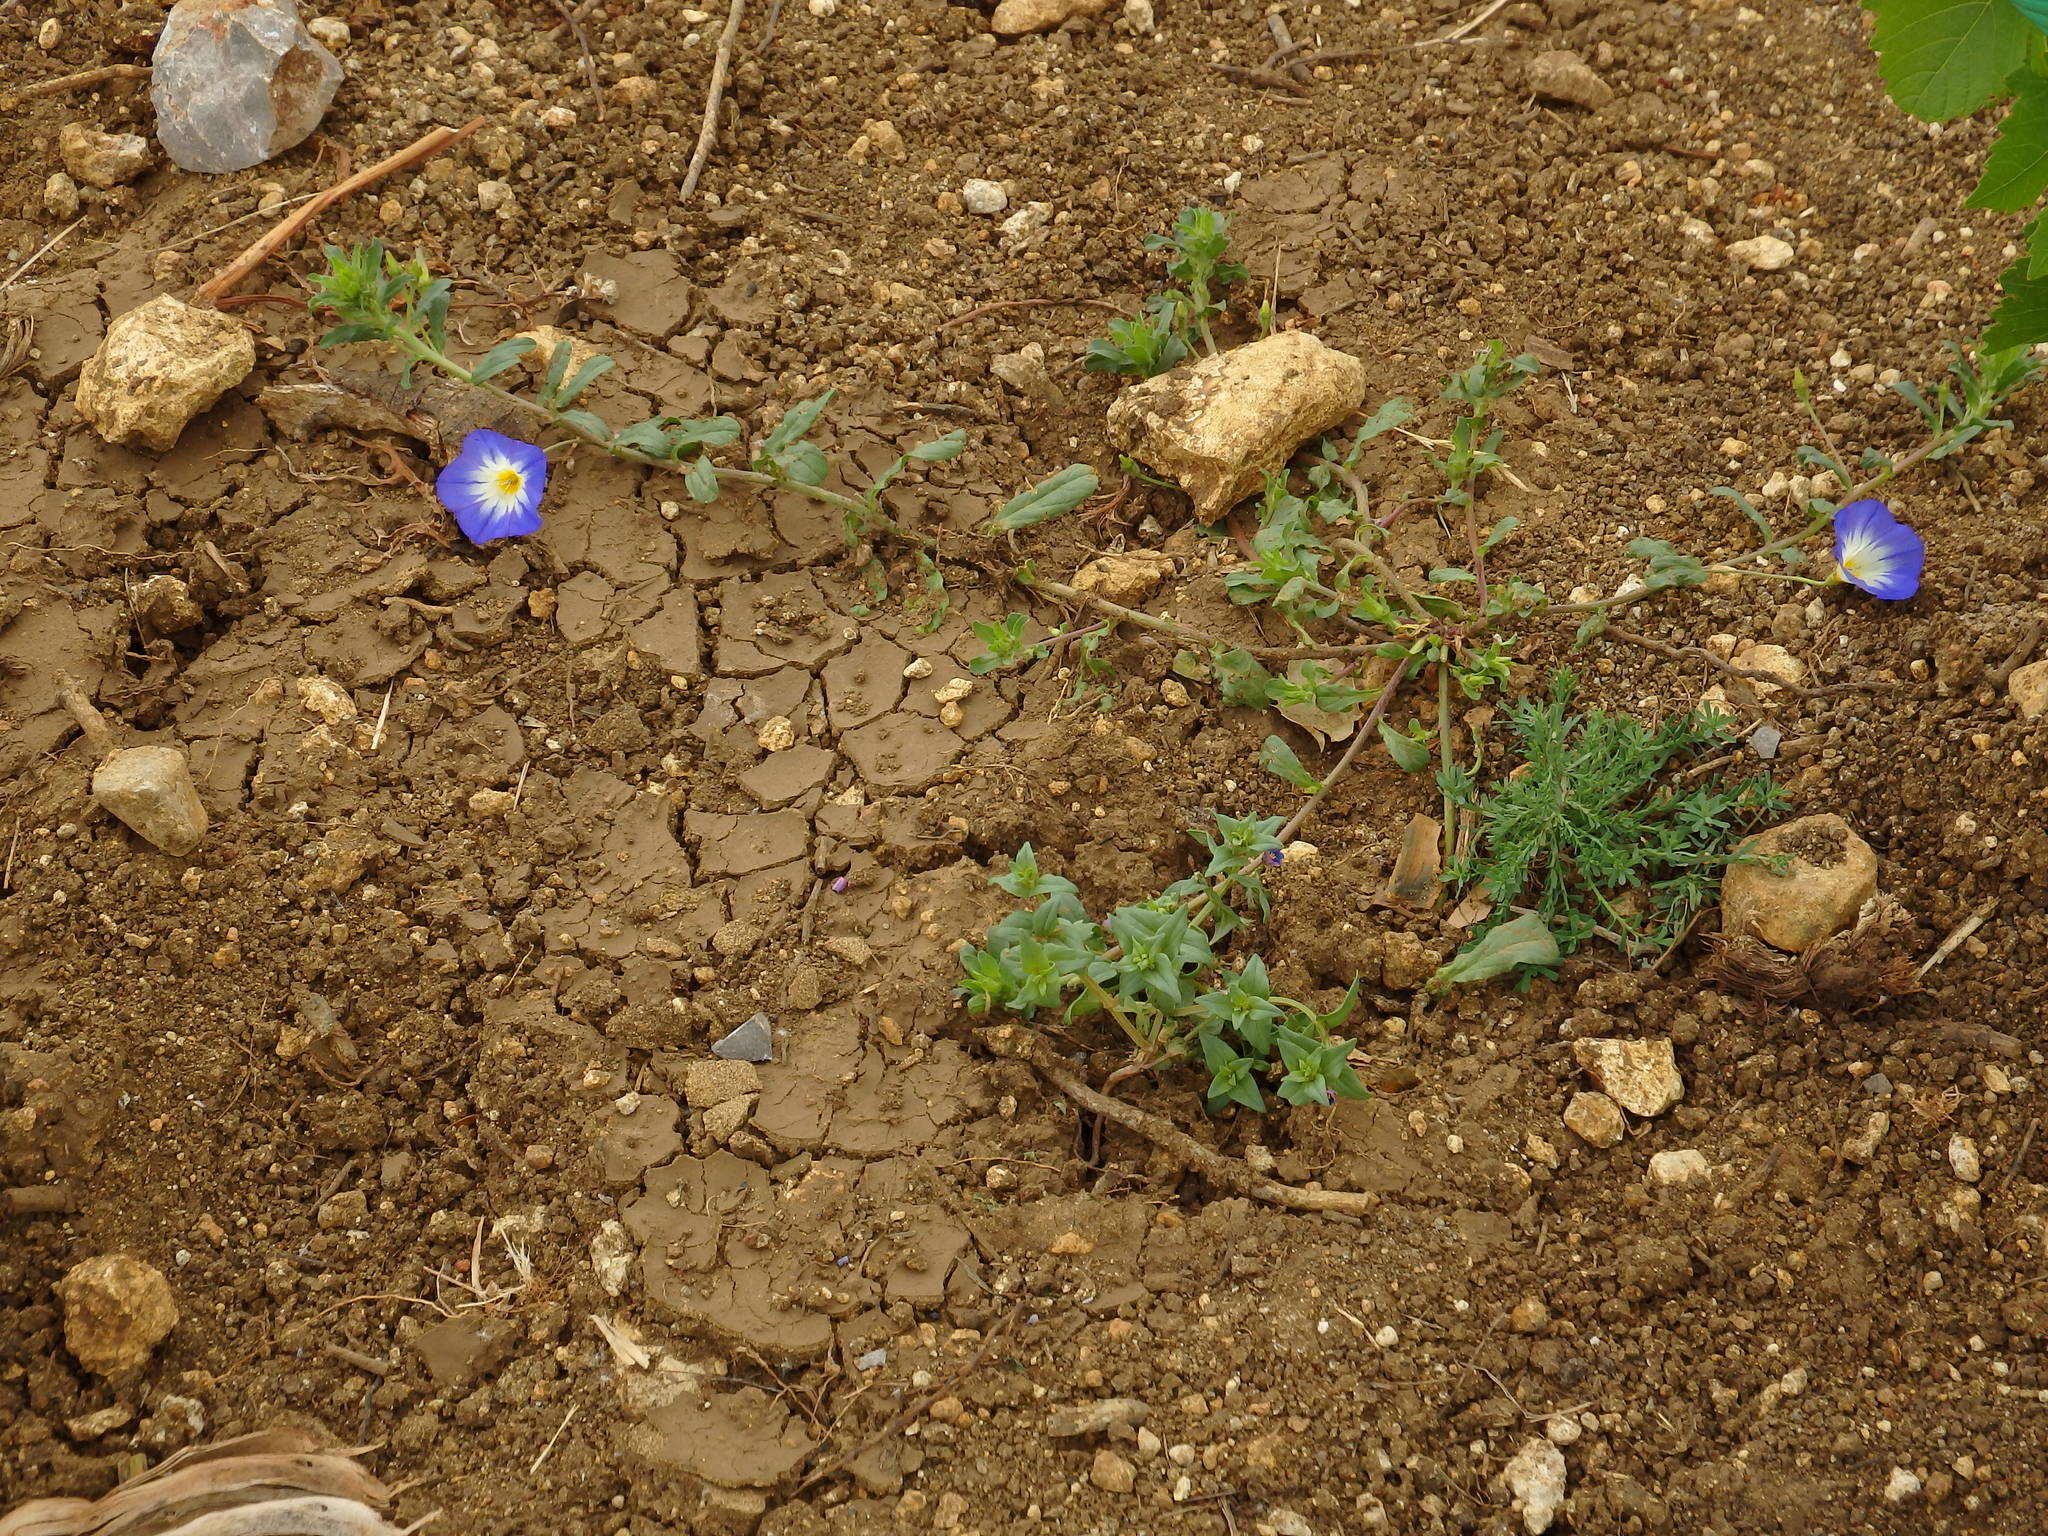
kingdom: Plantae
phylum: Tracheophyta
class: Magnoliopsida
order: Solanales
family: Convolvulaceae
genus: Convolvulus
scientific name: Convolvulus tricolor
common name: Dwarf morning-glory
